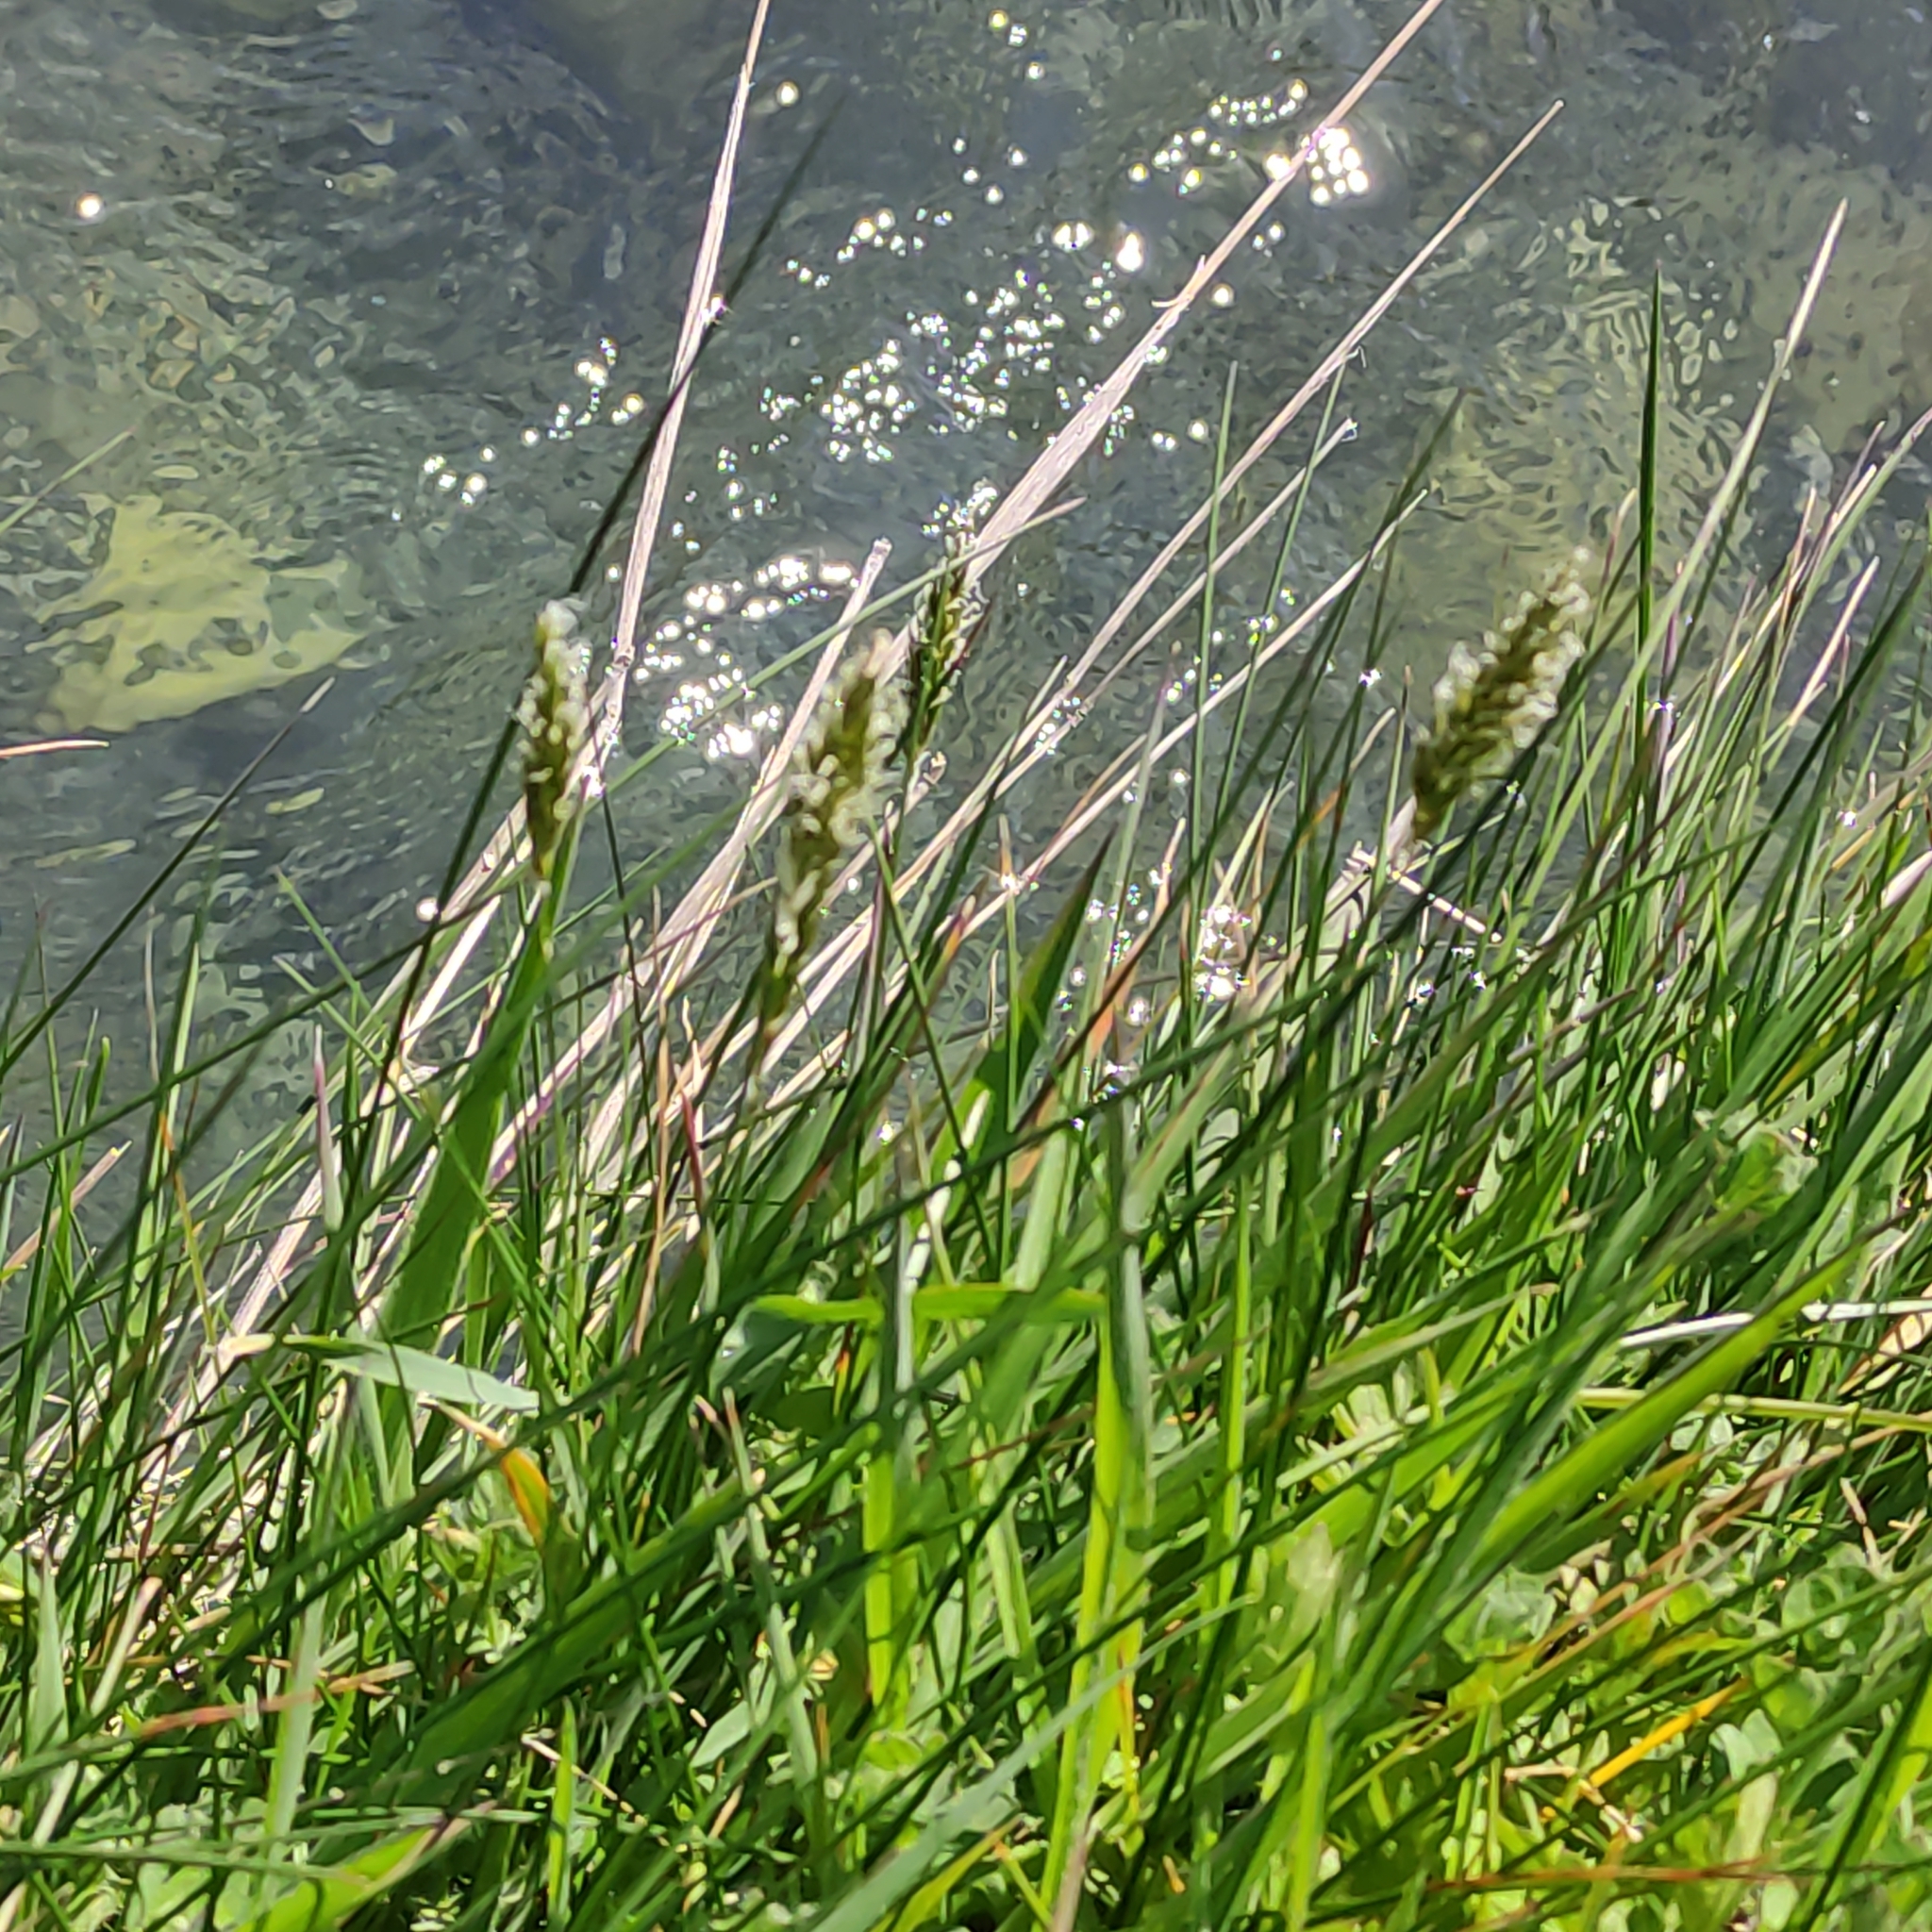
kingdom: Plantae
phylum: Tracheophyta
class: Liliopsida
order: Poales
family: Poaceae
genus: Anthoxanthum
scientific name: Anthoxanthum odoratum
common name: Sweet vernalgrass
